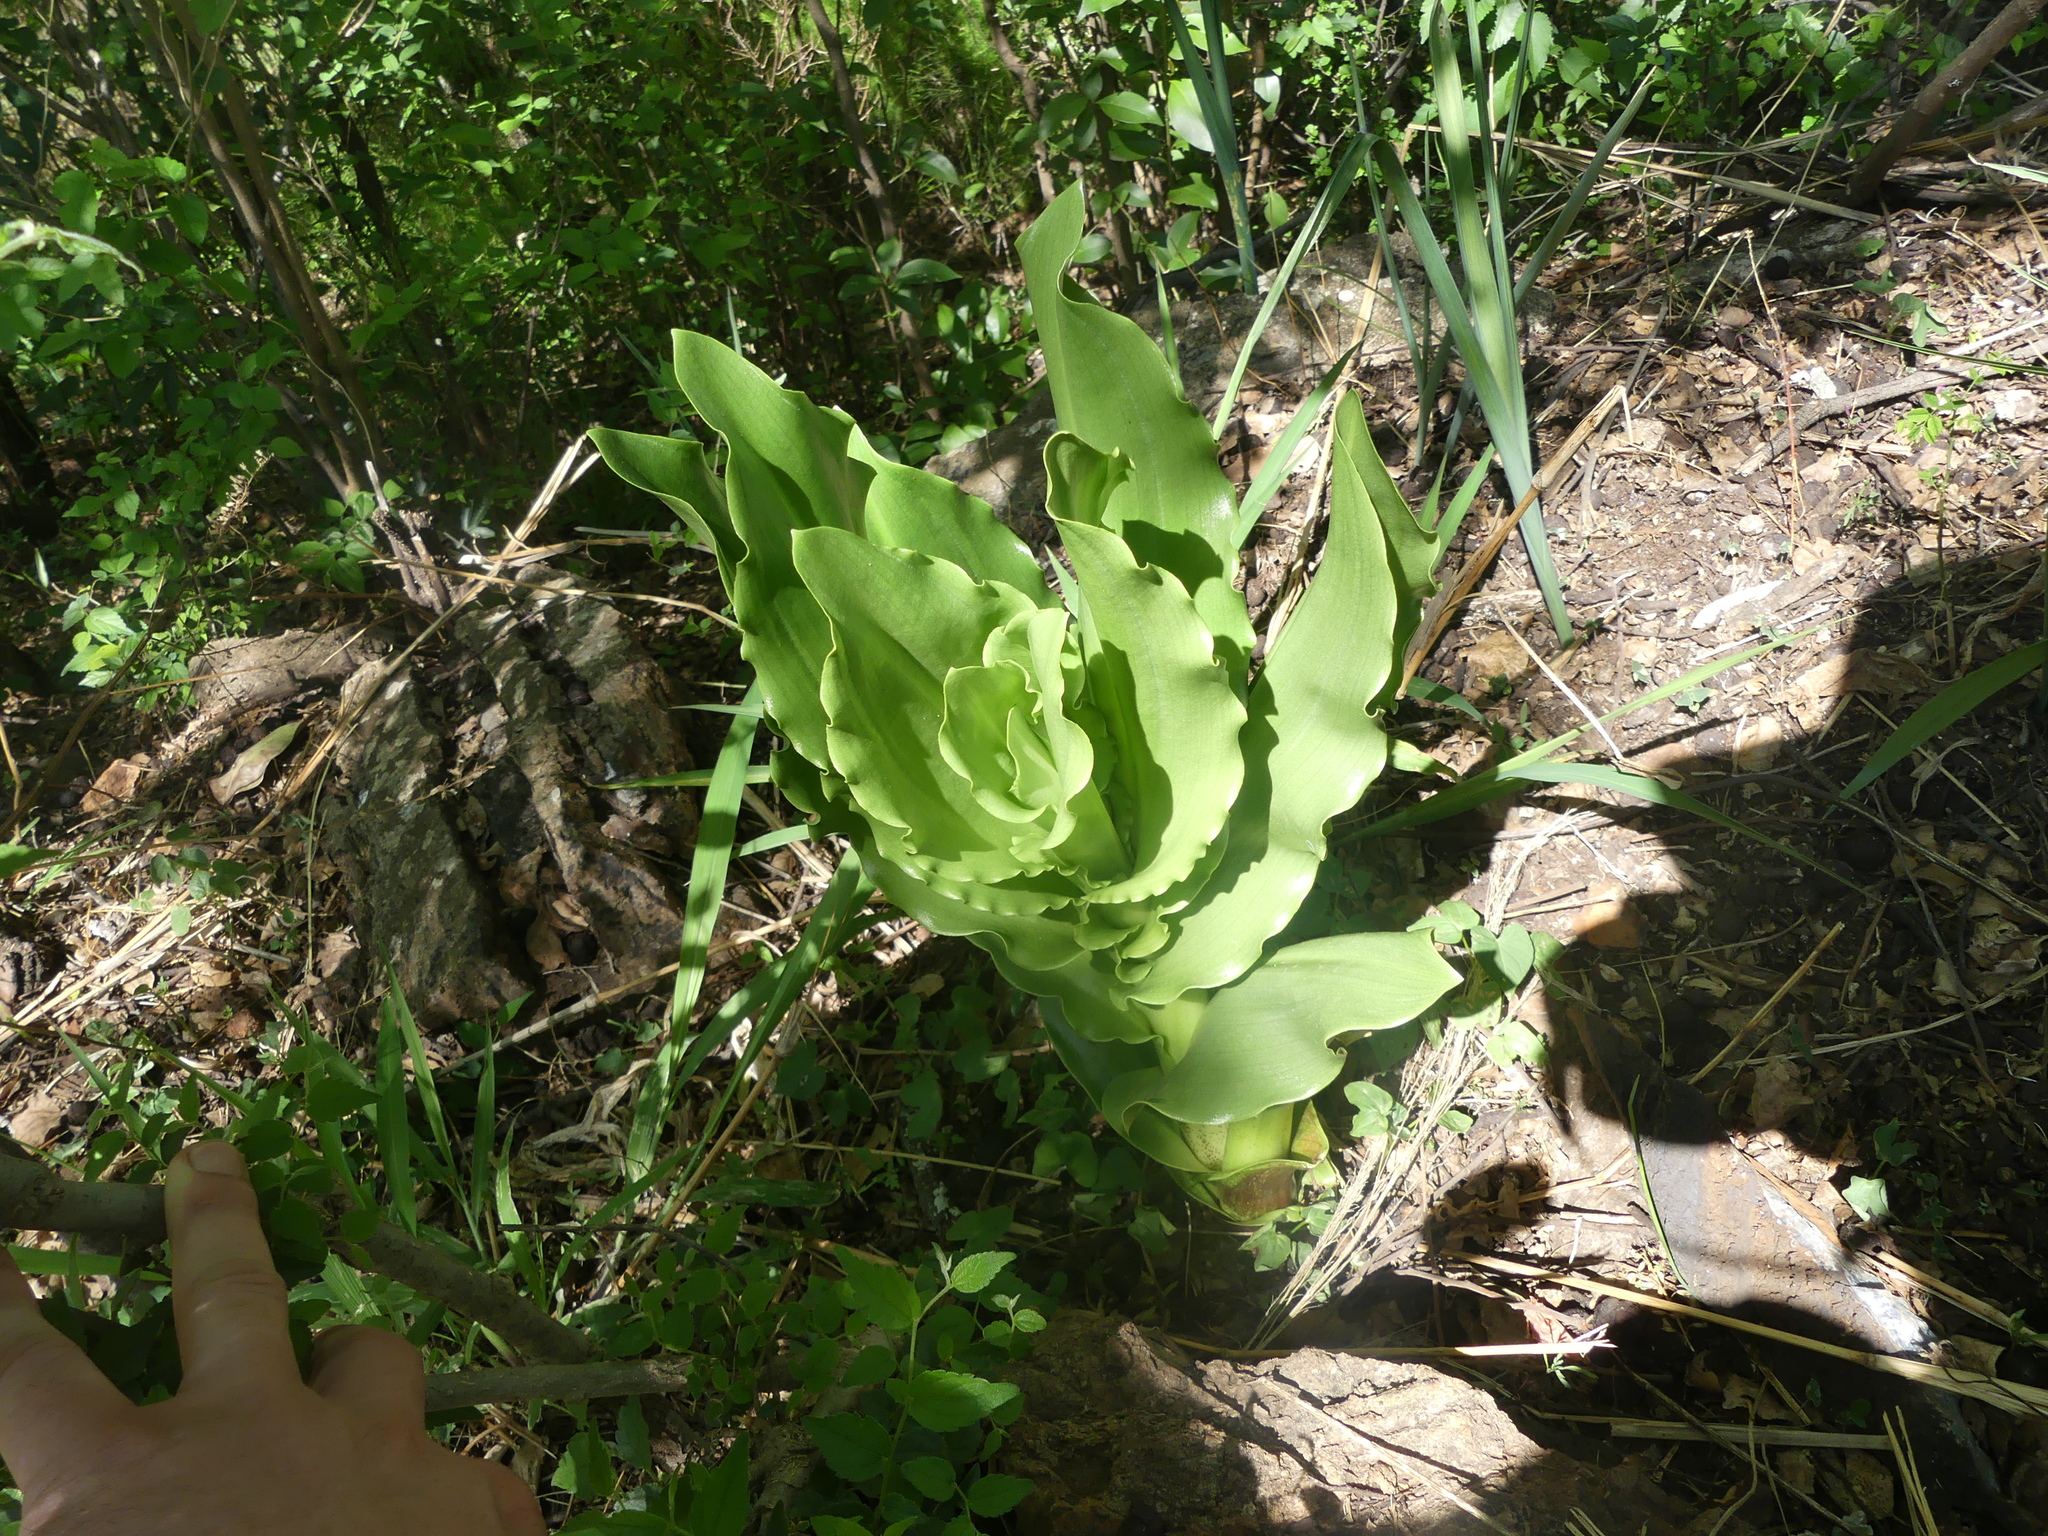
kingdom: Plantae
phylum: Tracheophyta
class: Liliopsida
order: Asparagales
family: Amaryllidaceae
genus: Scadoxus
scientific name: Scadoxus puniceus
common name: Royal-paintbrush
